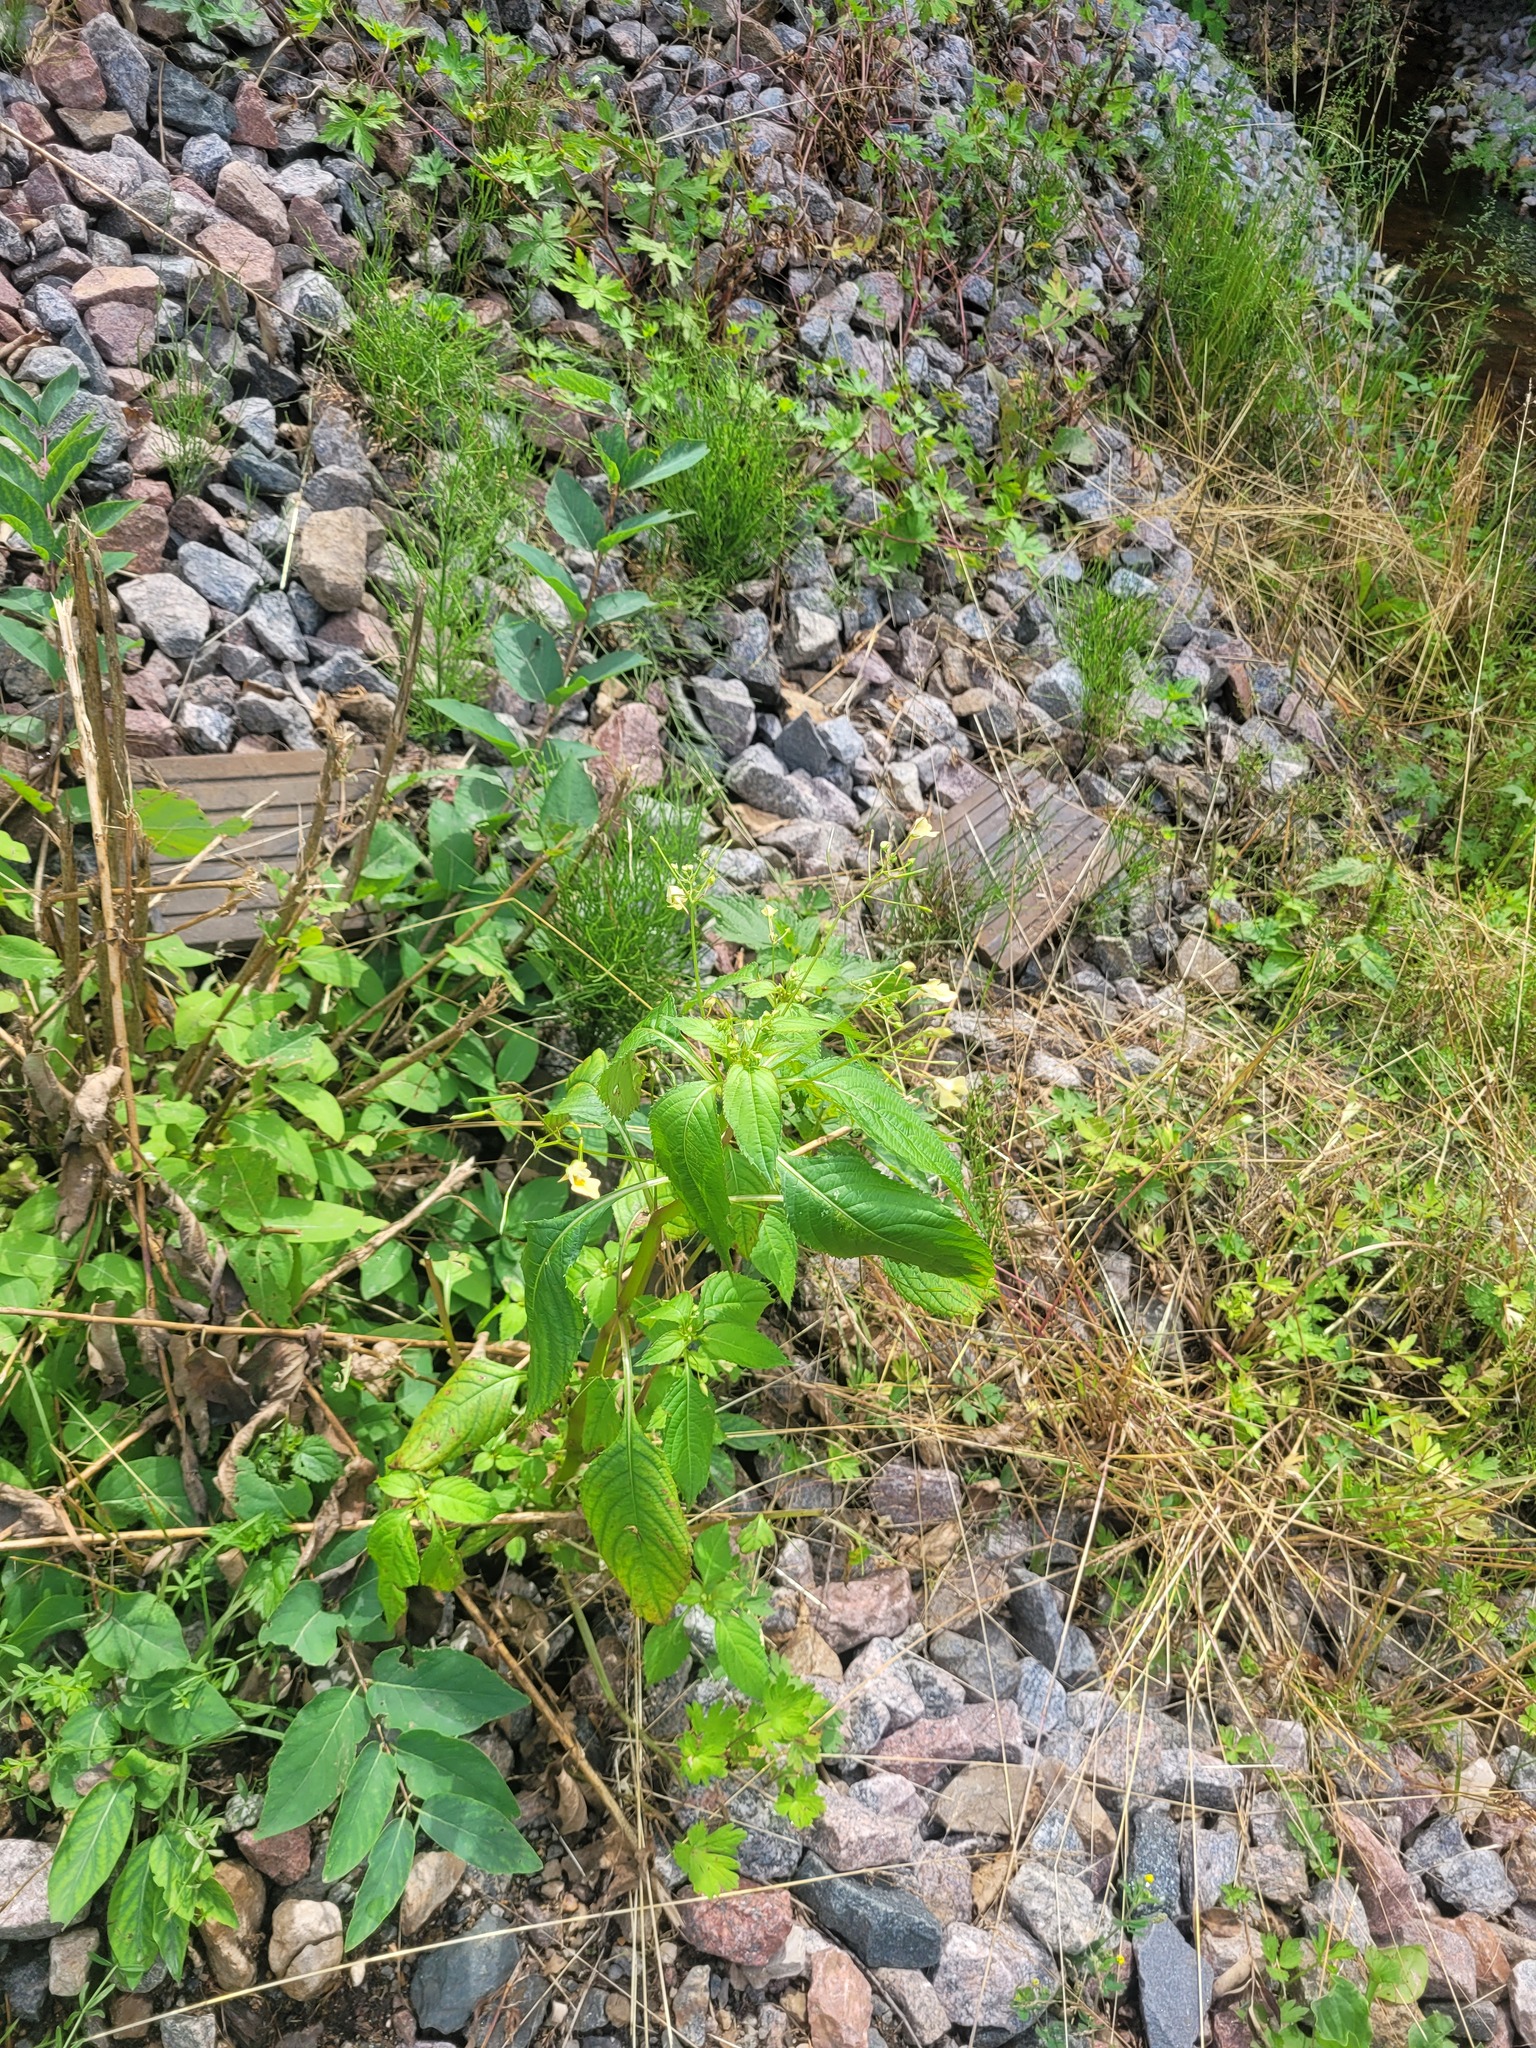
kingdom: Plantae
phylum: Tracheophyta
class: Magnoliopsida
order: Ericales
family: Balsaminaceae
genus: Impatiens
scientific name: Impatiens parviflora
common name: Small balsam
